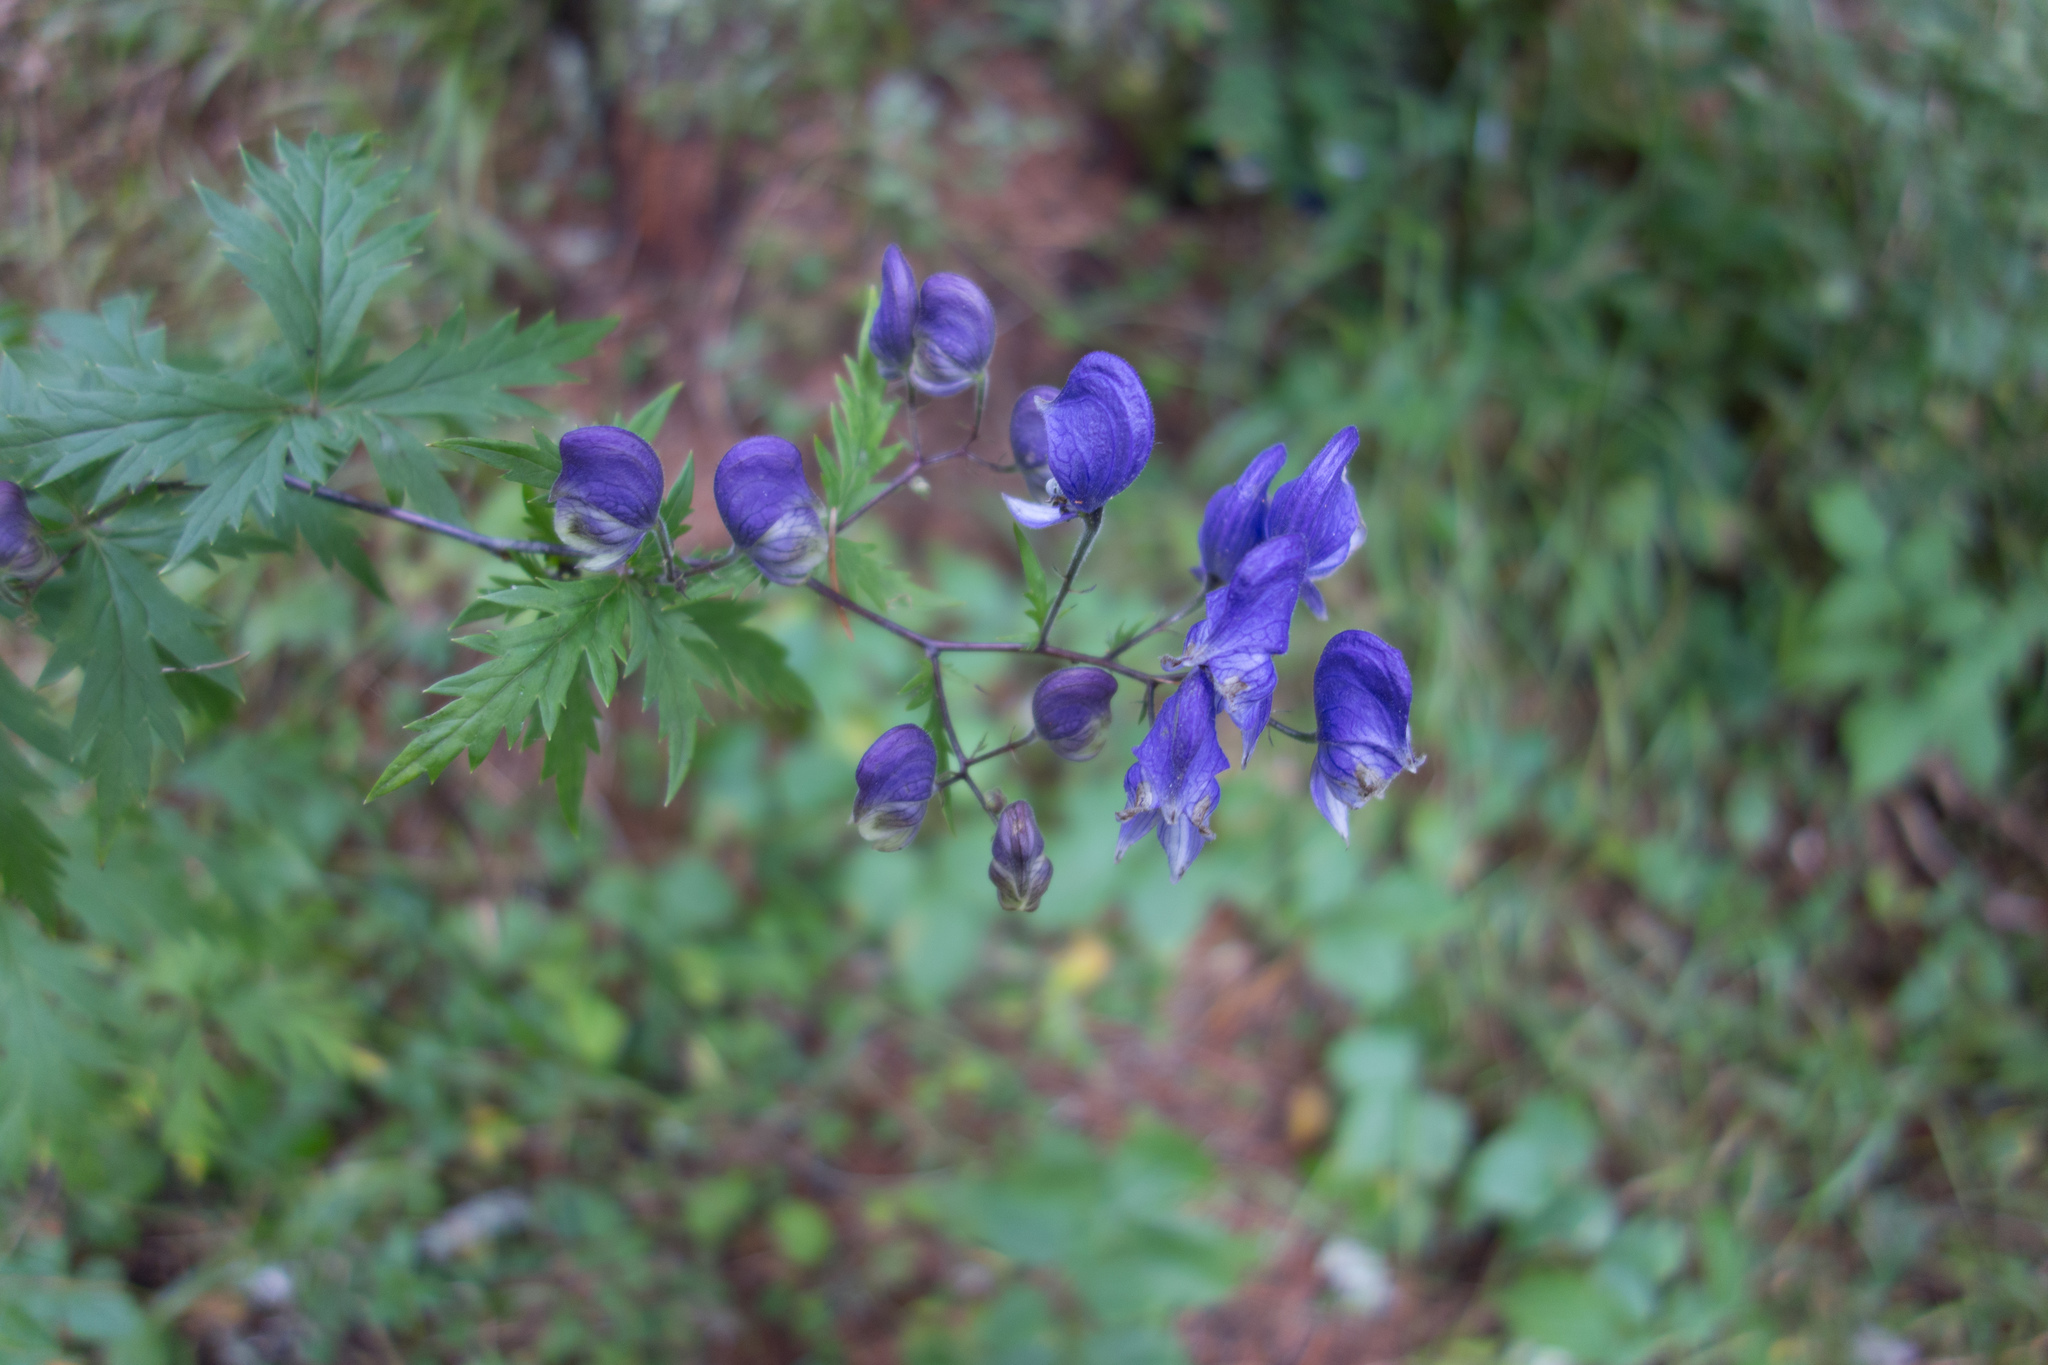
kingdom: Plantae
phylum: Tracheophyta
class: Magnoliopsida
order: Ranunculales
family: Ranunculaceae
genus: Aconitum
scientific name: Aconitum degenii
